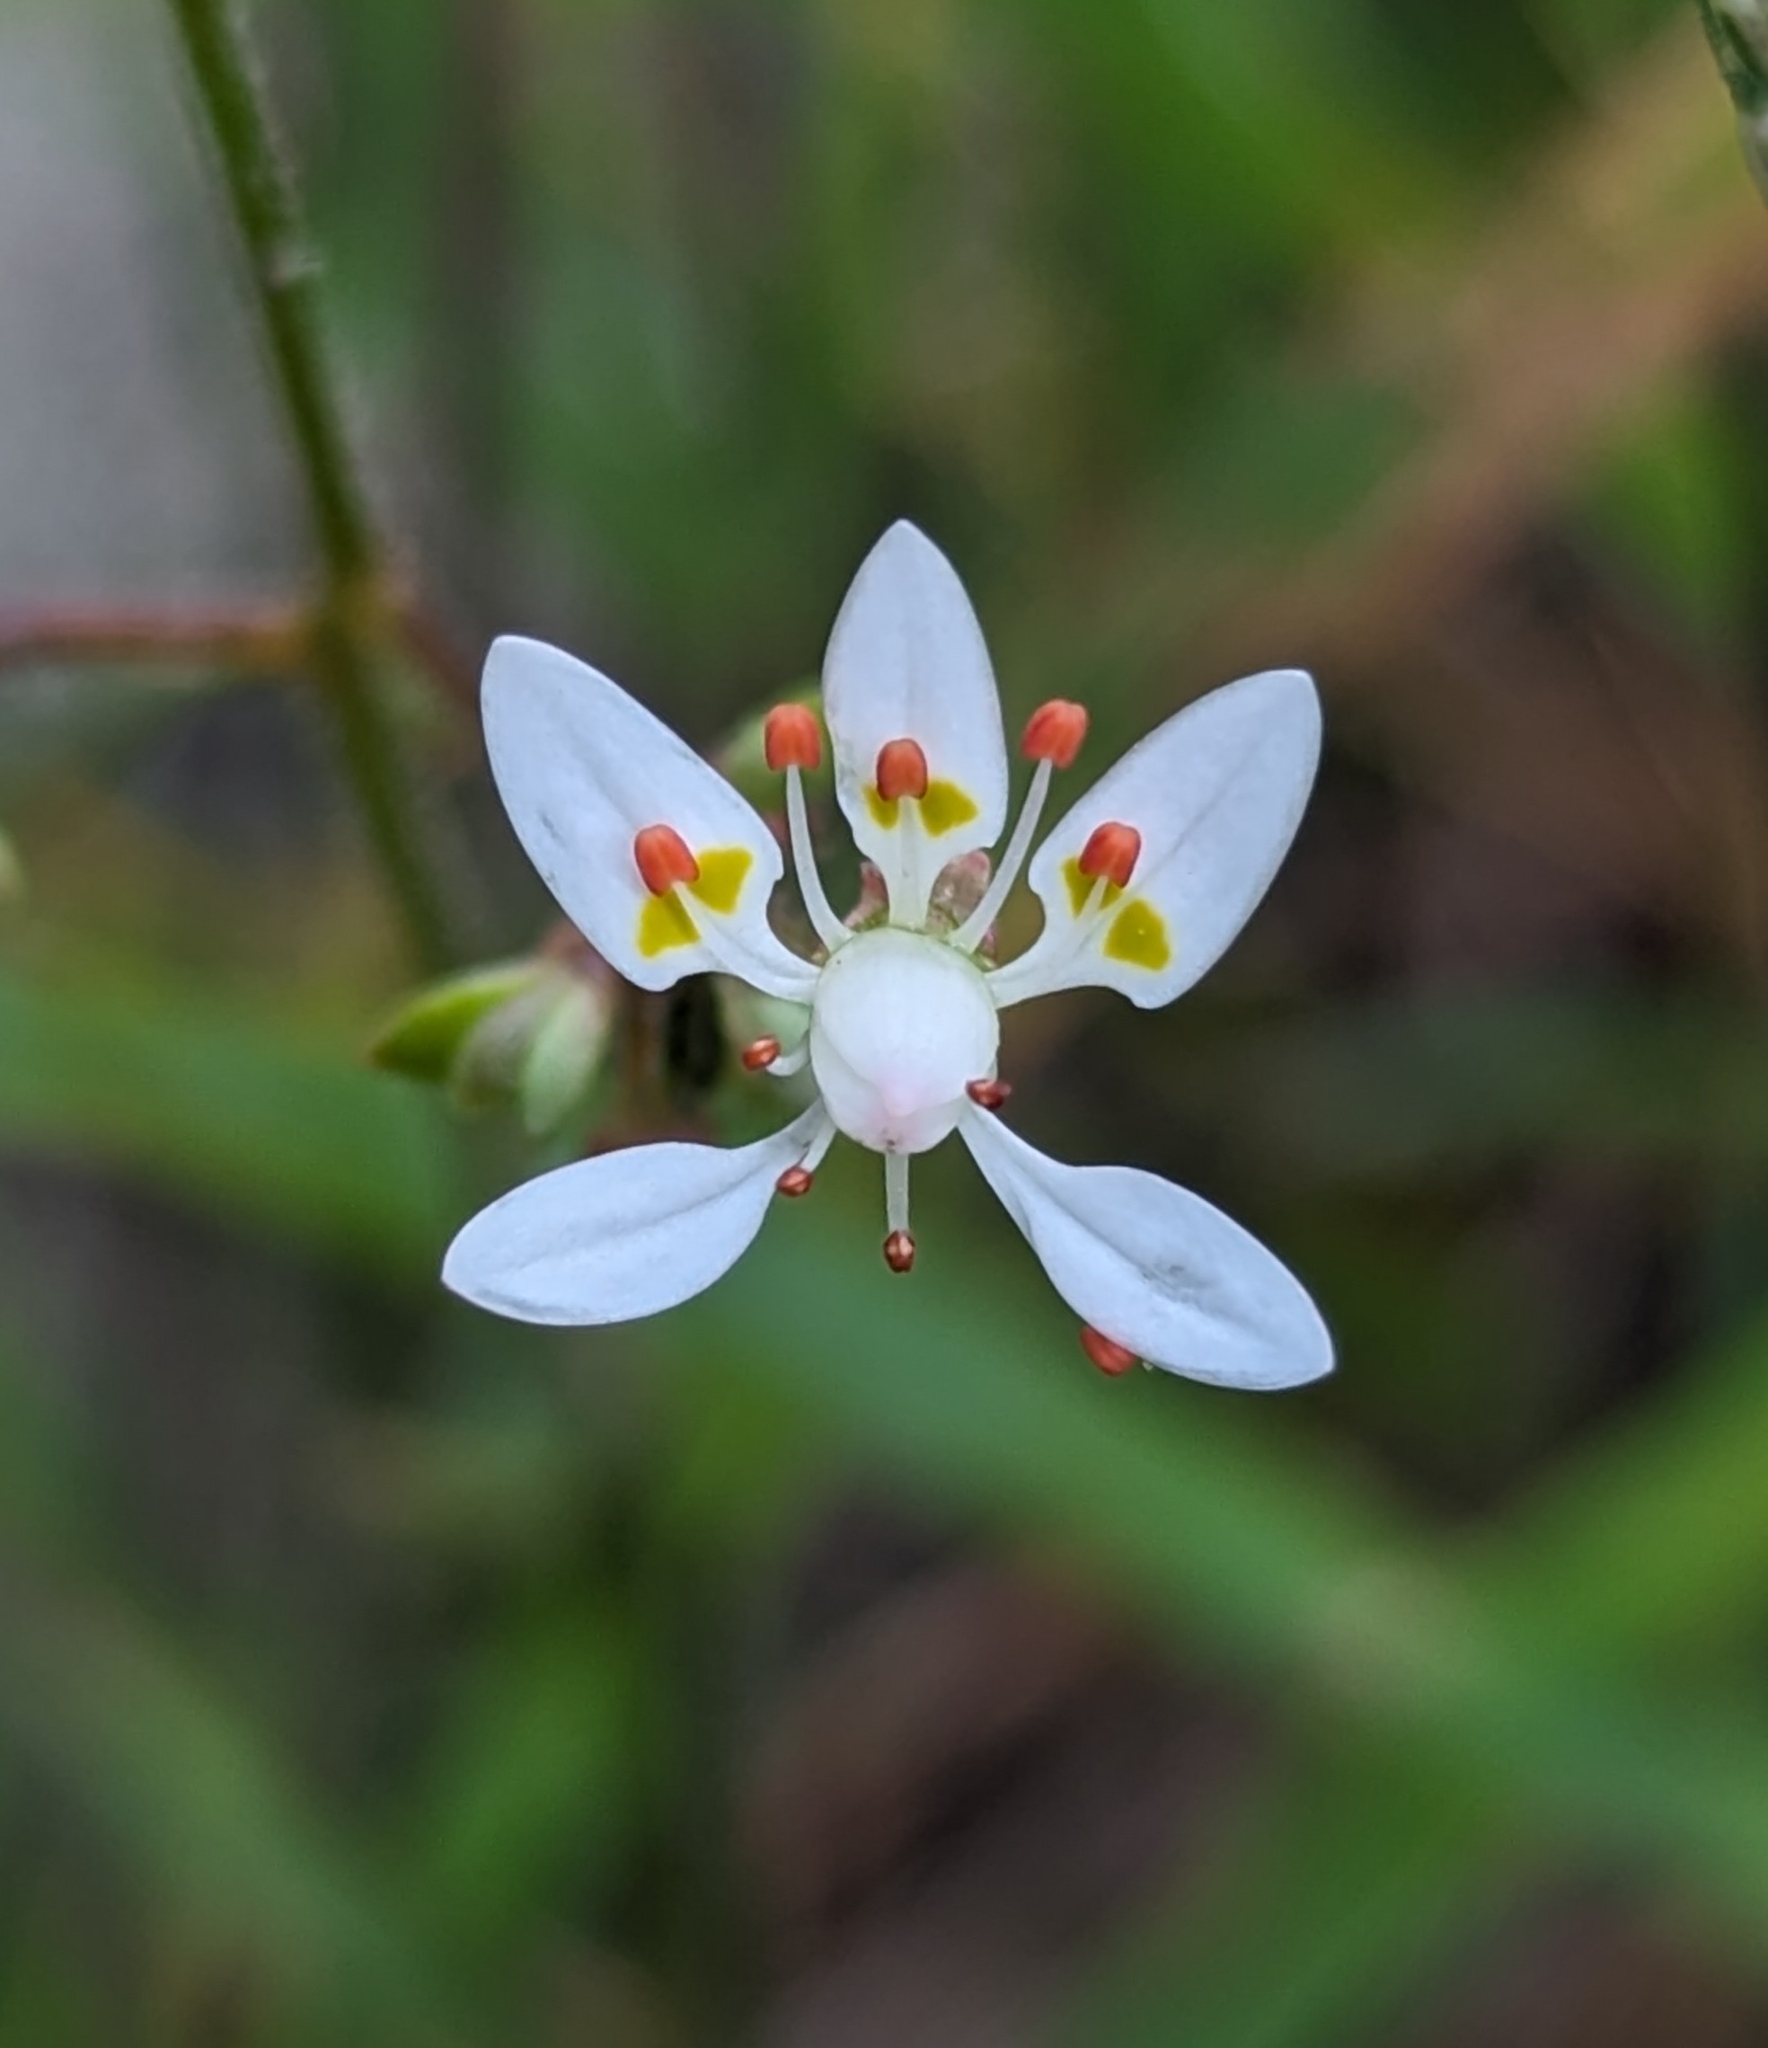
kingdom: Plantae
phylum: Tracheophyta
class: Magnoliopsida
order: Saxifragales
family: Saxifragaceae
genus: Micranthes
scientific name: Micranthes ferruginea
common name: Rusty saxifrage
